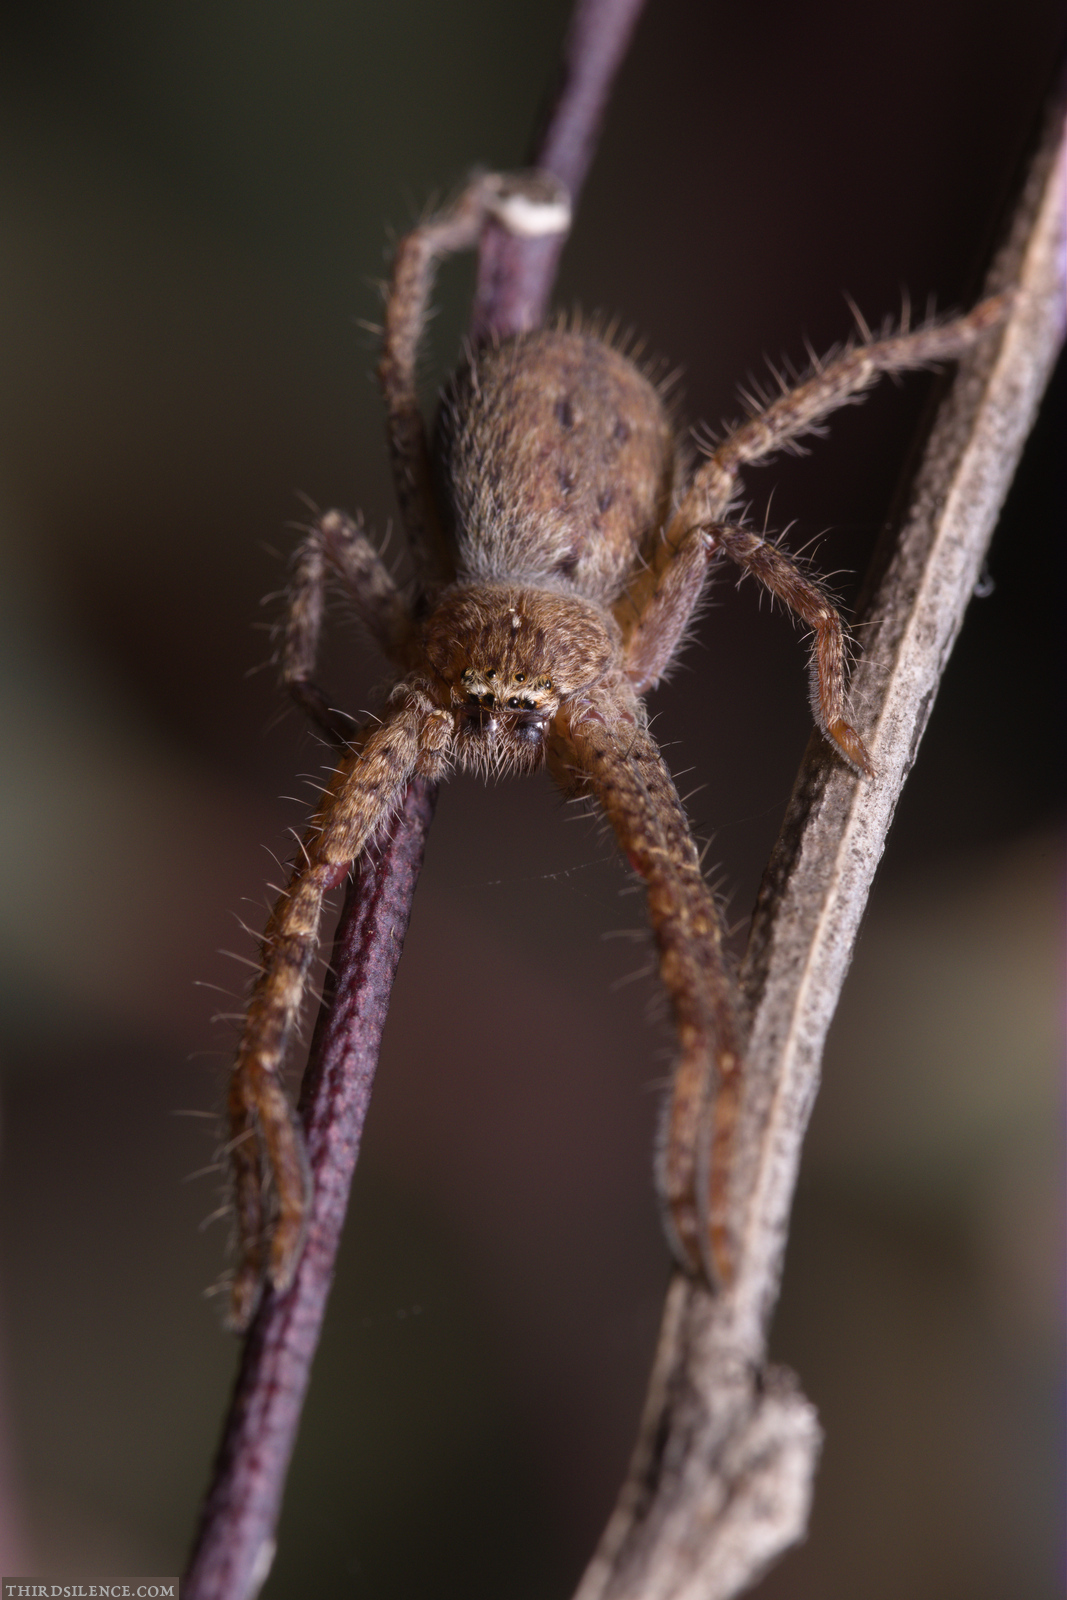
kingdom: Animalia
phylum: Arthropoda
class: Arachnida
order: Araneae
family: Sparassidae
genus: Isopedella
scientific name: Isopedella pessleri
